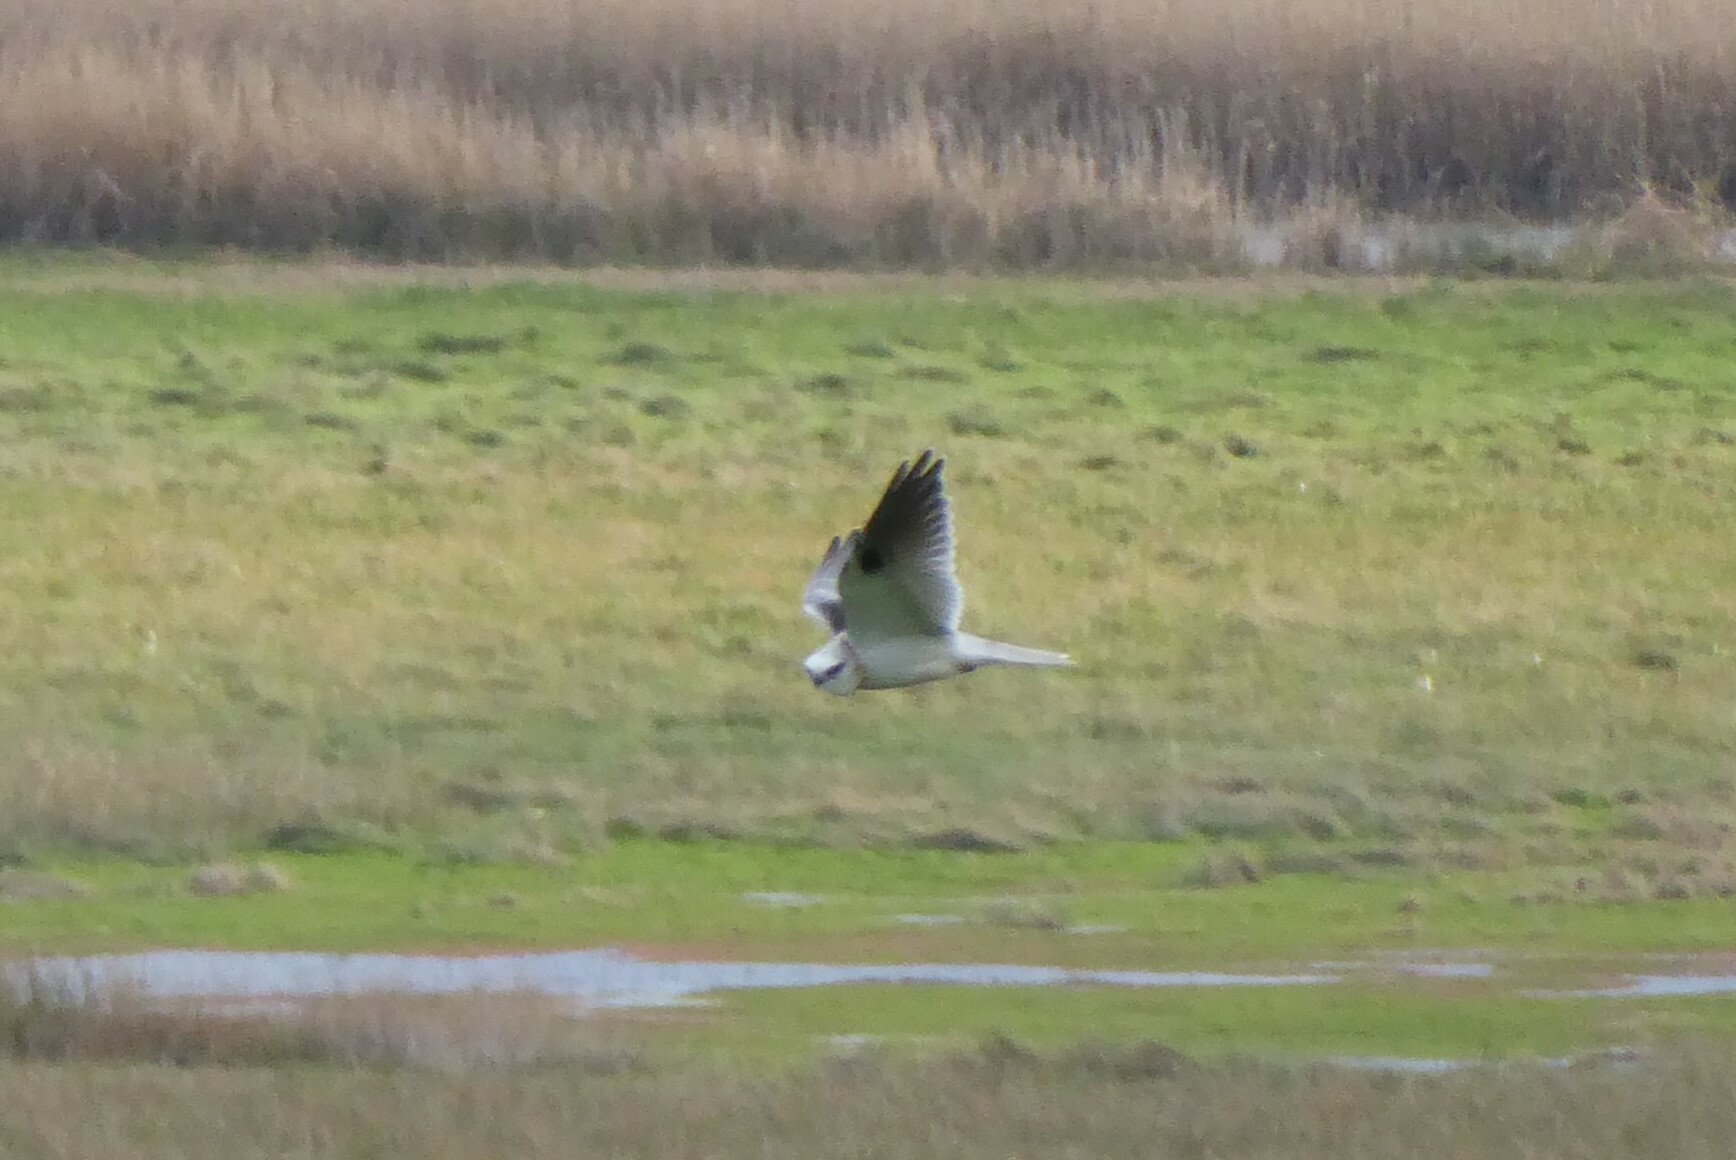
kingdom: Animalia
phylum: Chordata
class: Aves
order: Accipitriformes
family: Accipitridae
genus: Elanus
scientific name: Elanus axillaris
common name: Black-shouldered kite
